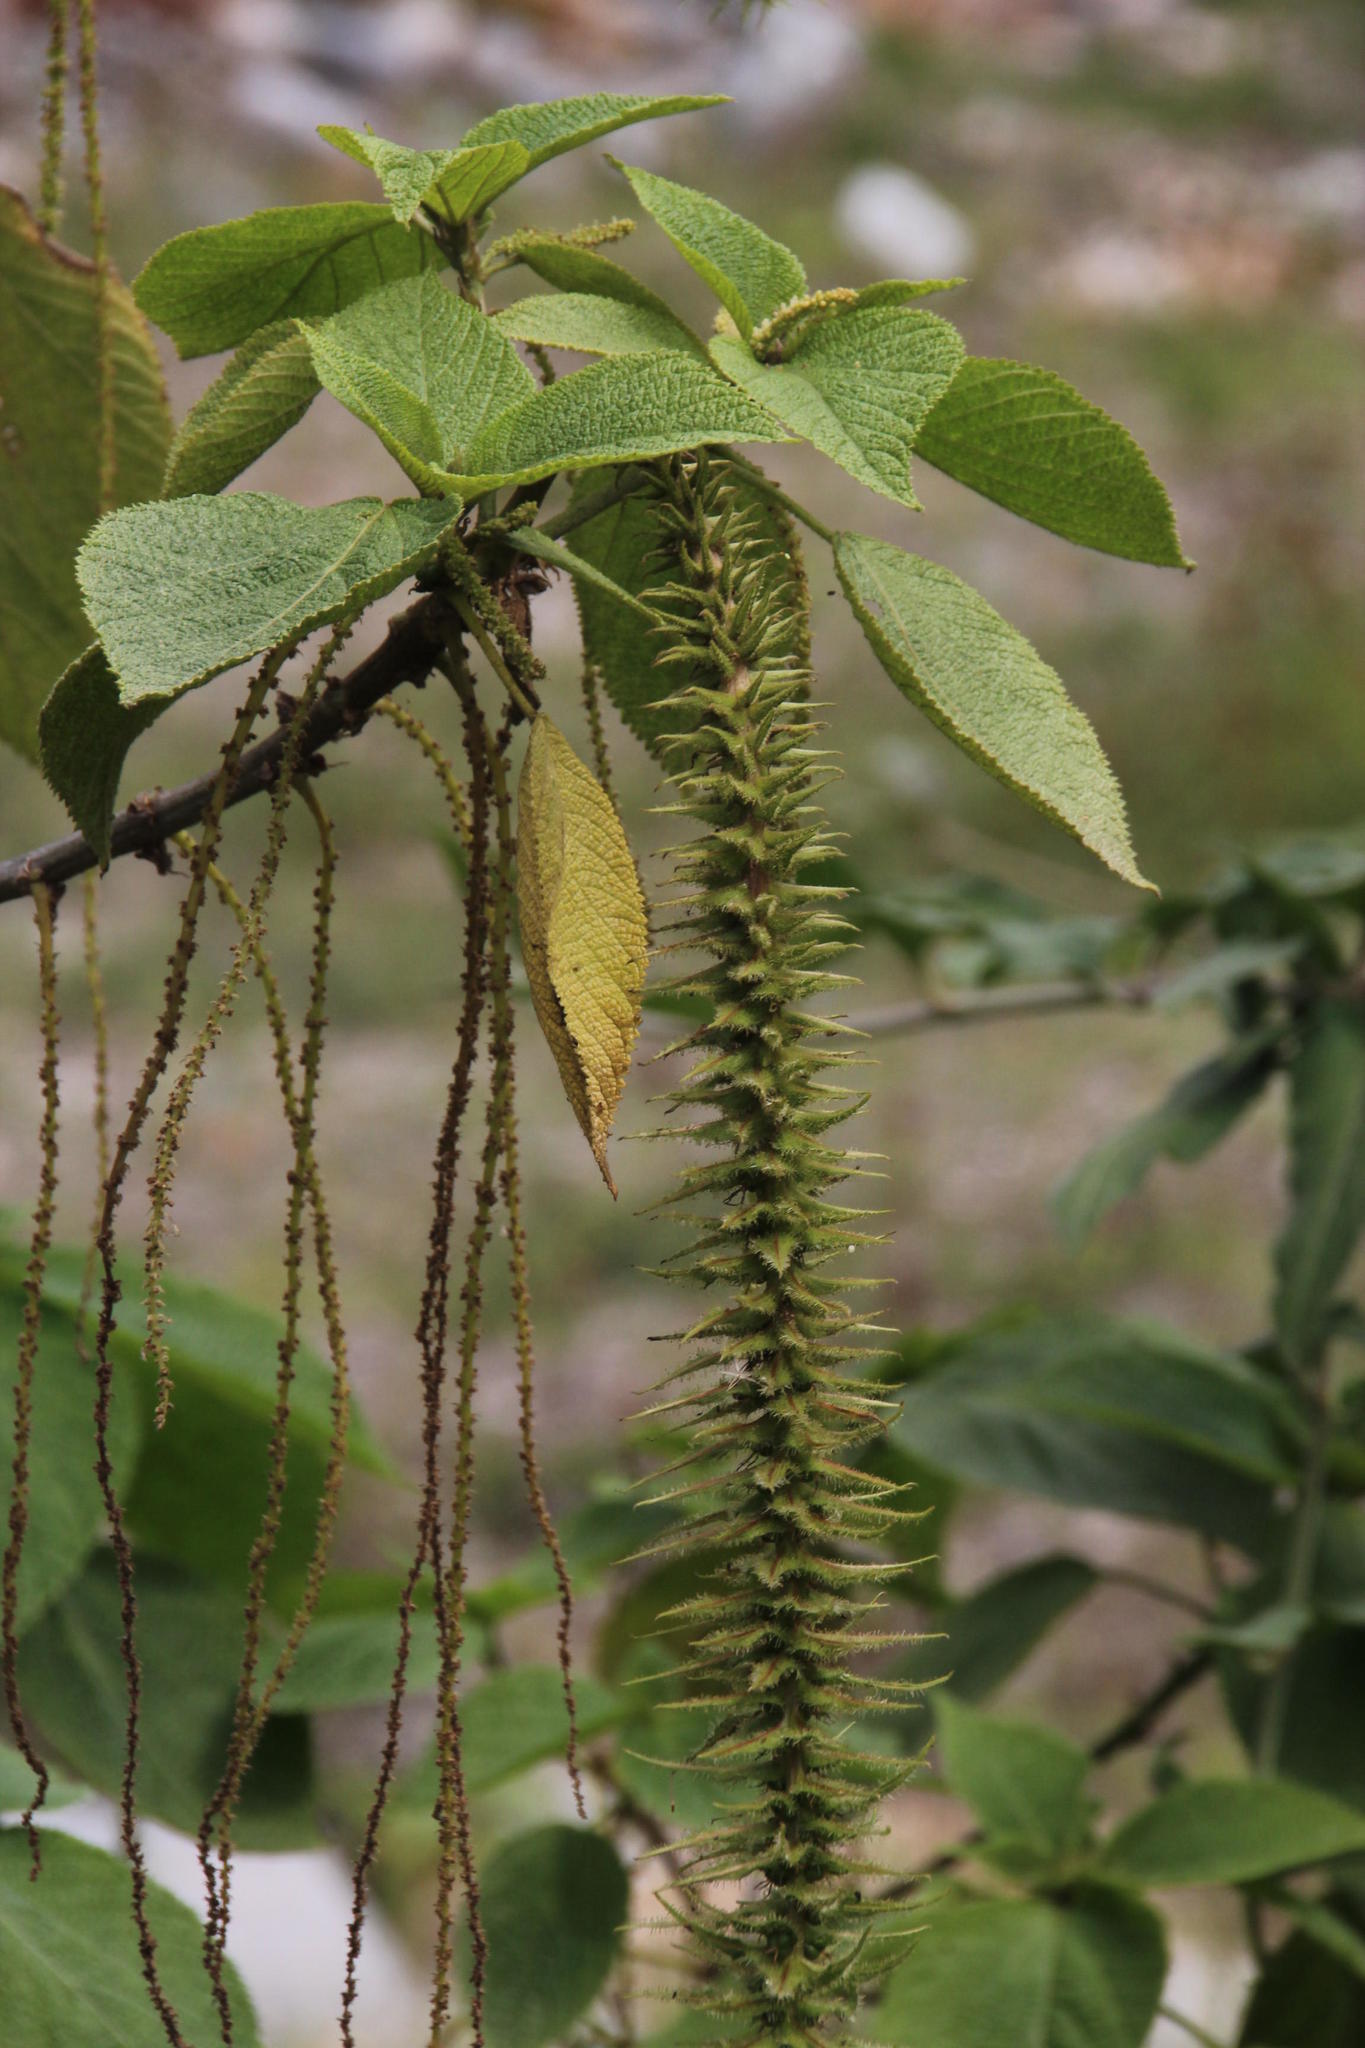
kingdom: Plantae
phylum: Tracheophyta
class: Magnoliopsida
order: Malpighiales
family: Euphorbiaceae
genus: Acalypha
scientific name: Acalypha peruviana
